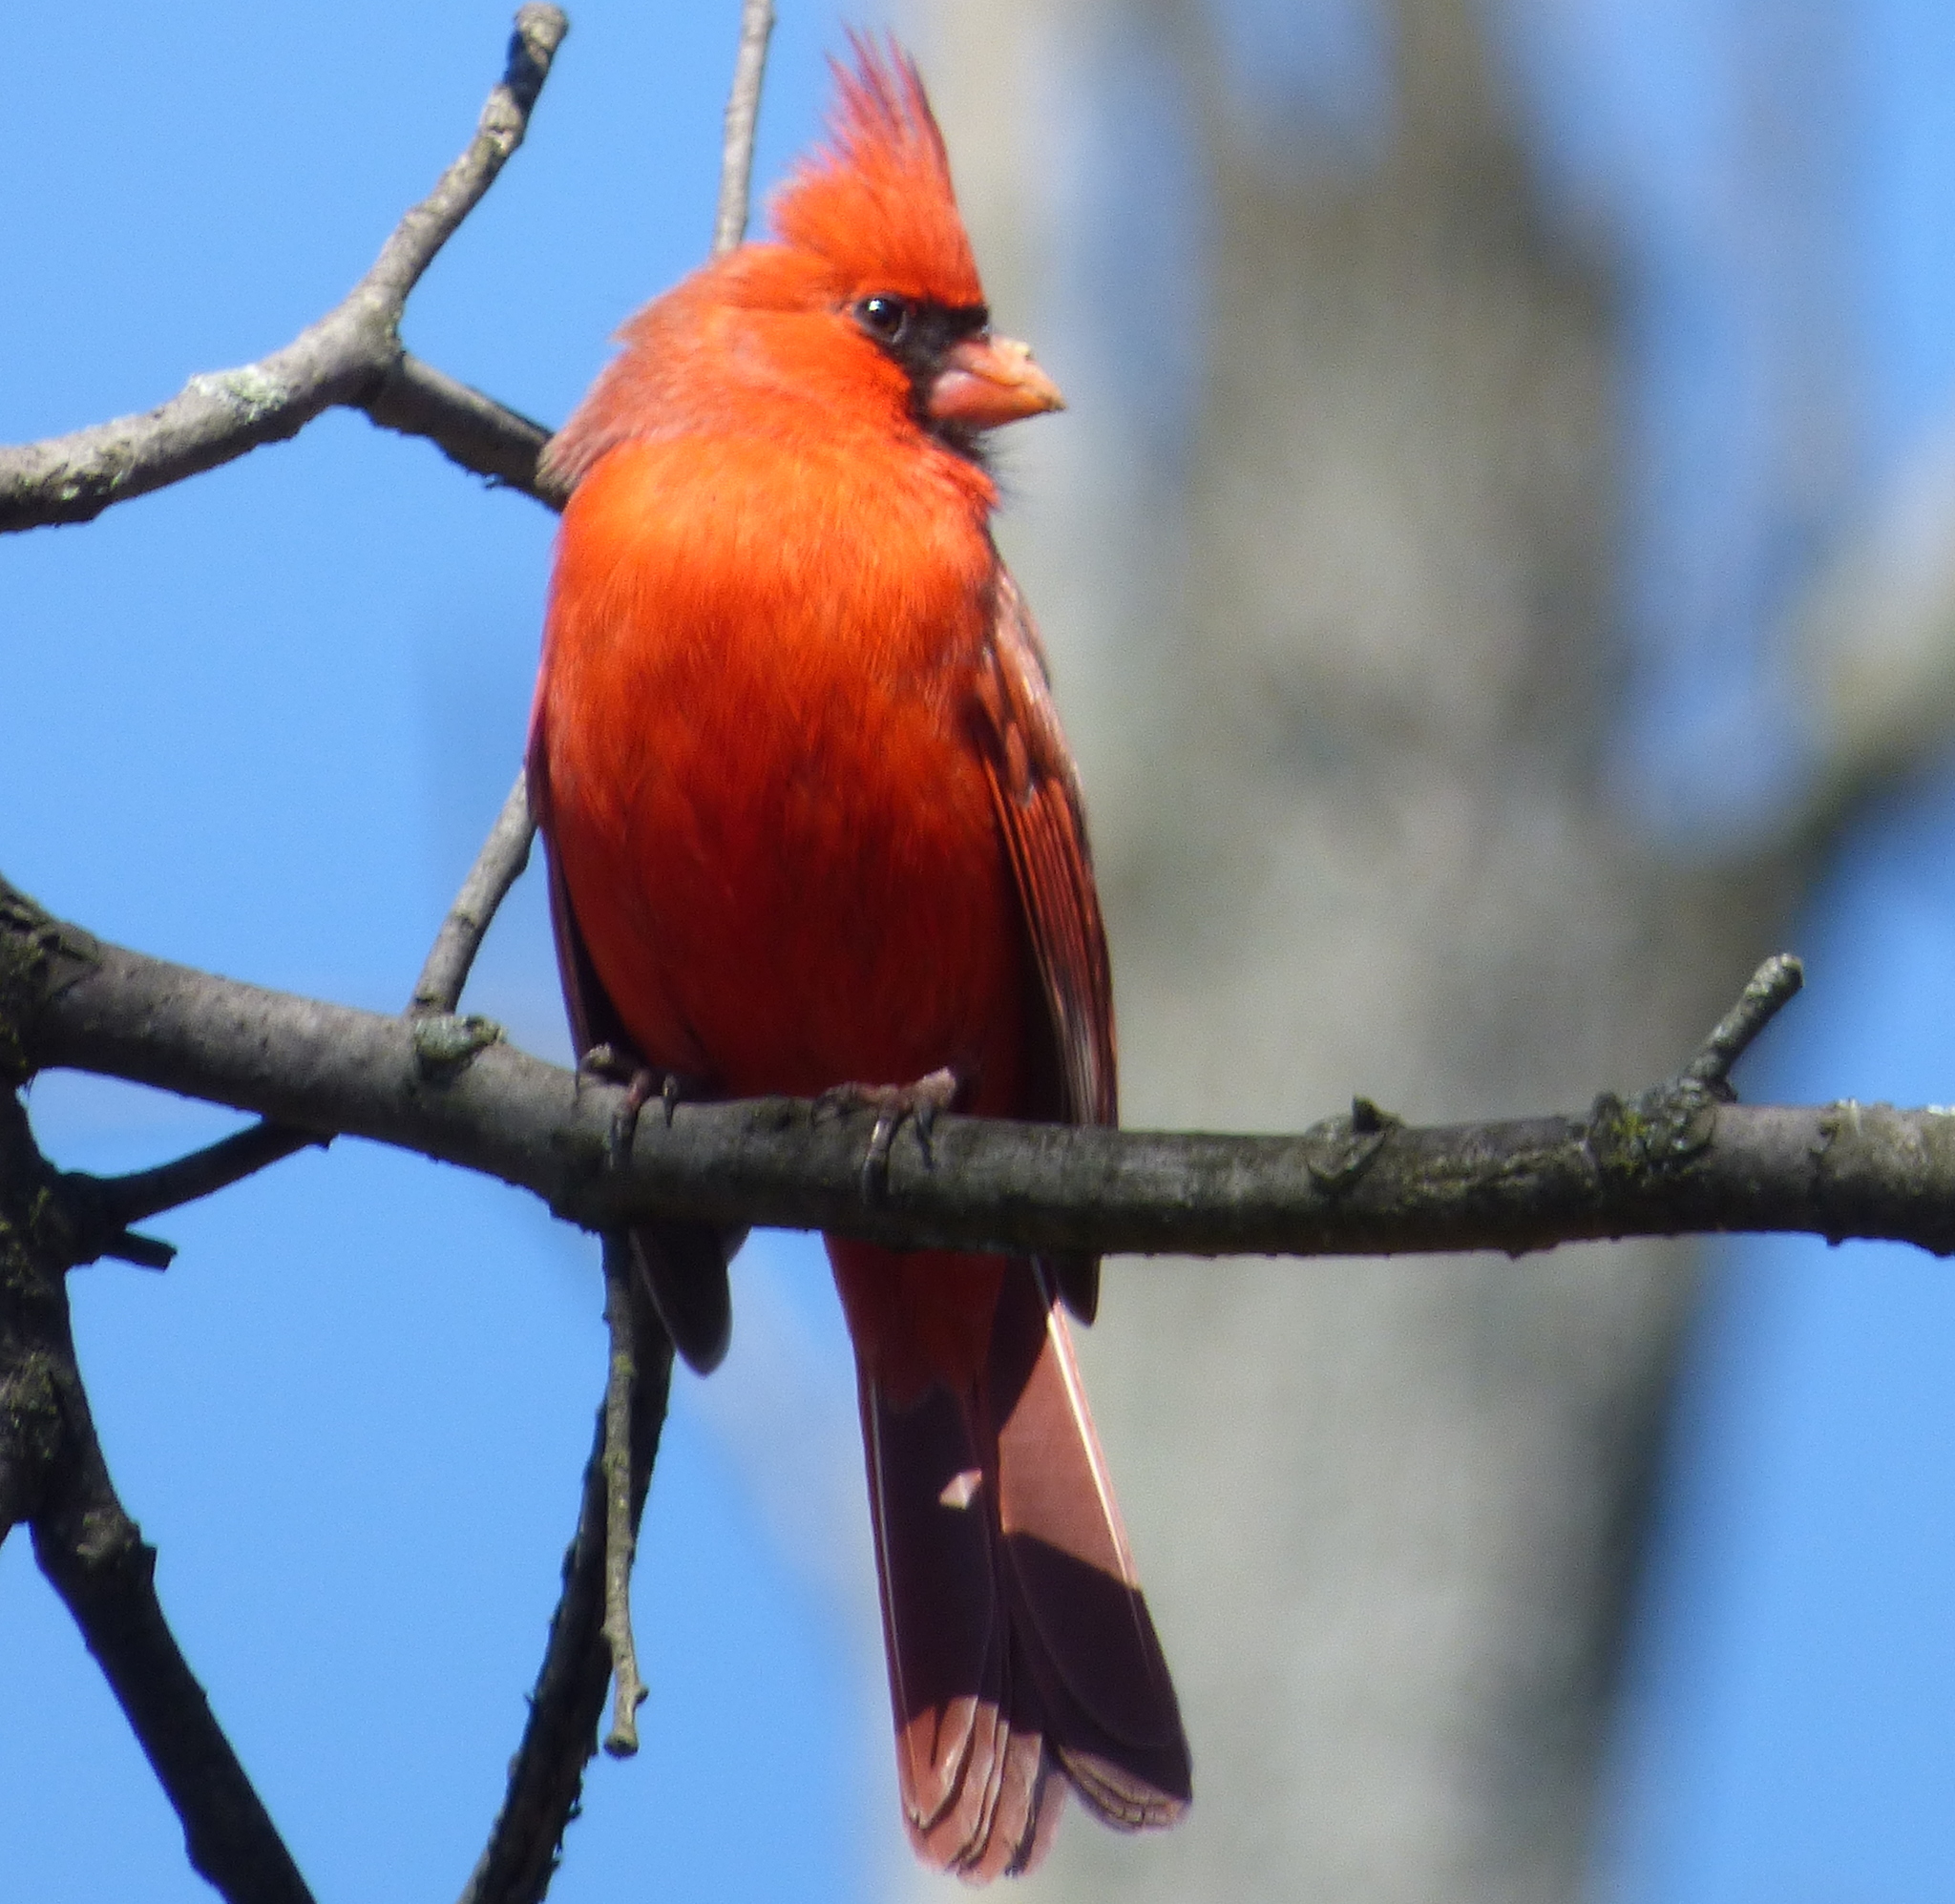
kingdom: Animalia
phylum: Chordata
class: Aves
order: Passeriformes
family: Cardinalidae
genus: Cardinalis
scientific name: Cardinalis cardinalis
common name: Northern cardinal
